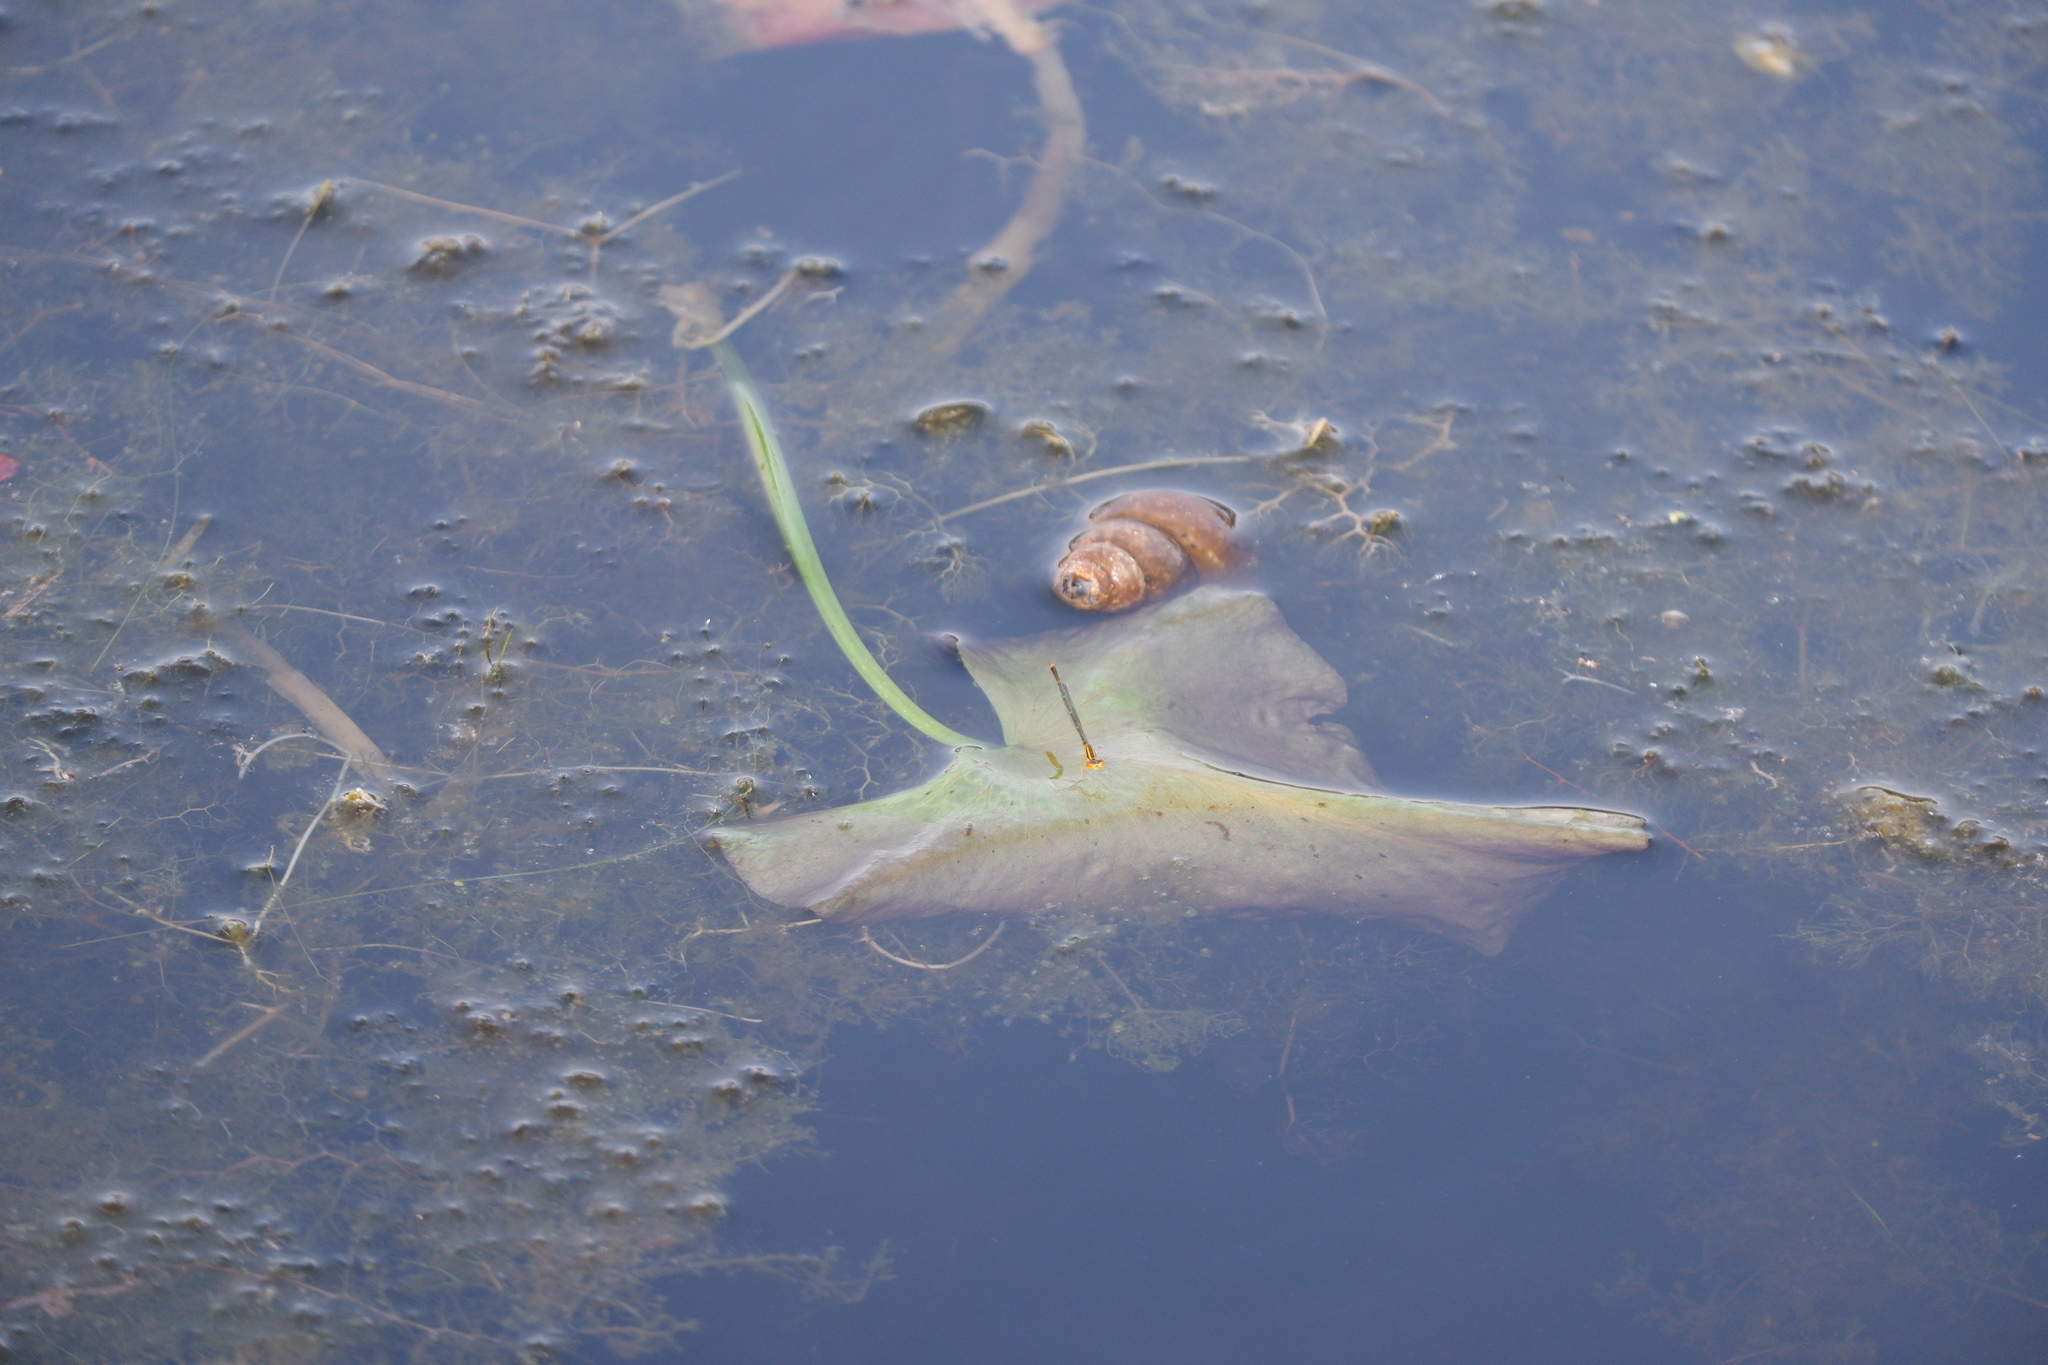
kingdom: Animalia
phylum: Arthropoda
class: Insecta
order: Odonata
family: Coenagrionidae
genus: Enallagma
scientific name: Enallagma signatum
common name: Orange bluet
